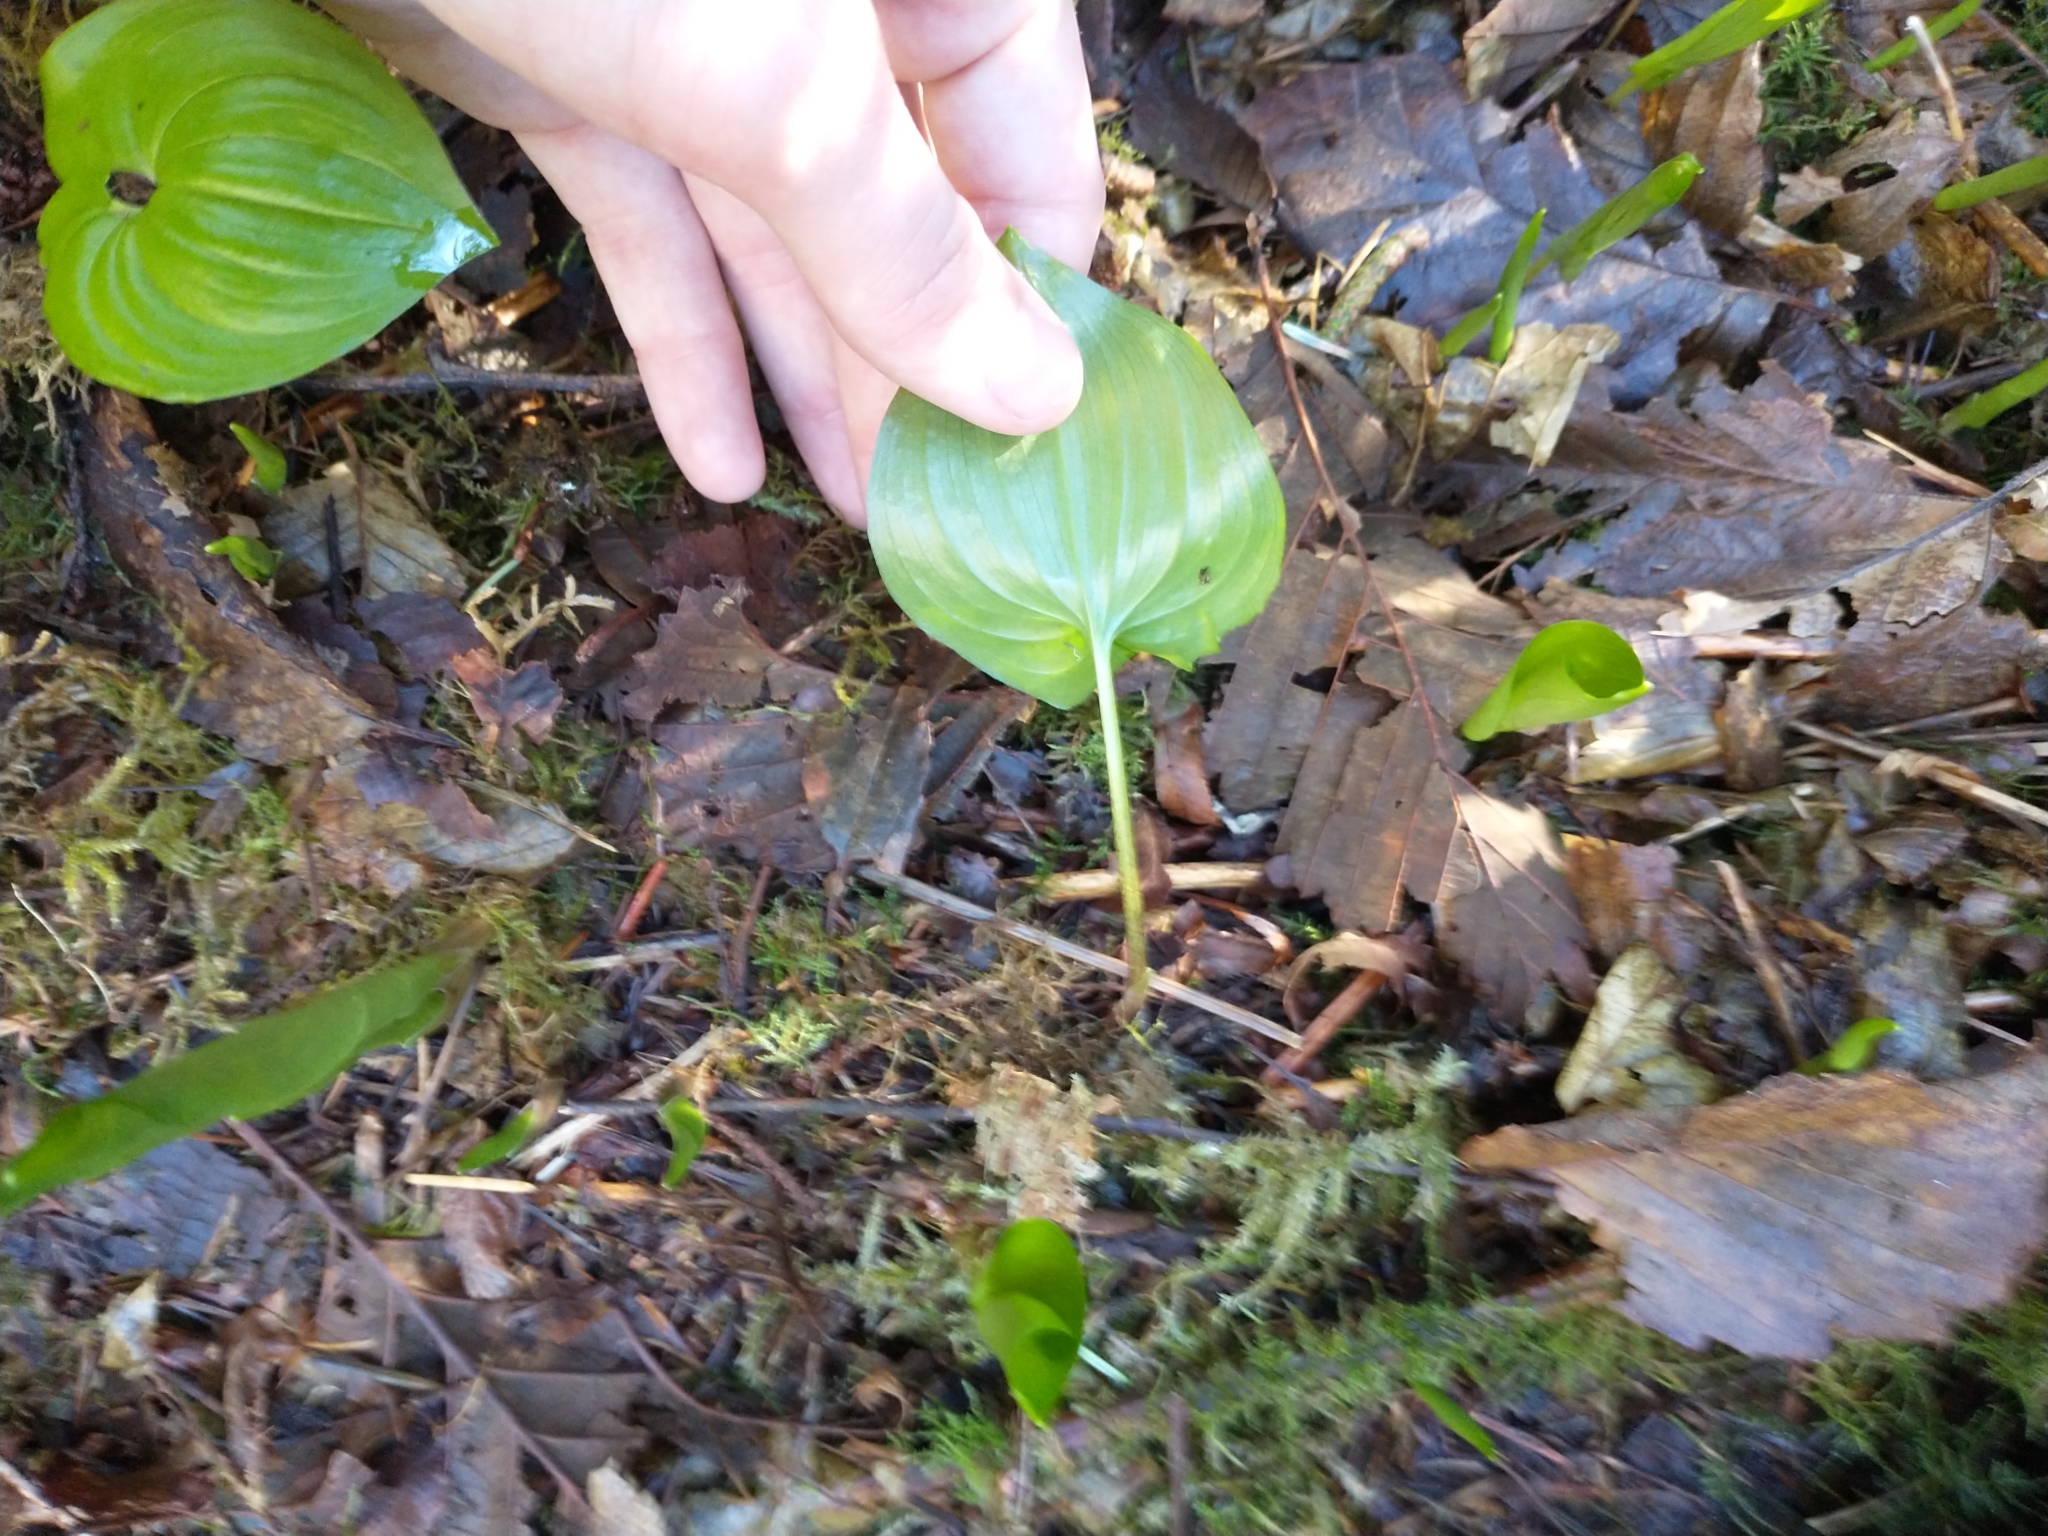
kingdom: Plantae
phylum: Tracheophyta
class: Liliopsida
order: Asparagales
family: Asparagaceae
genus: Maianthemum
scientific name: Maianthemum dilatatum
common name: False lily-of-the-valley
